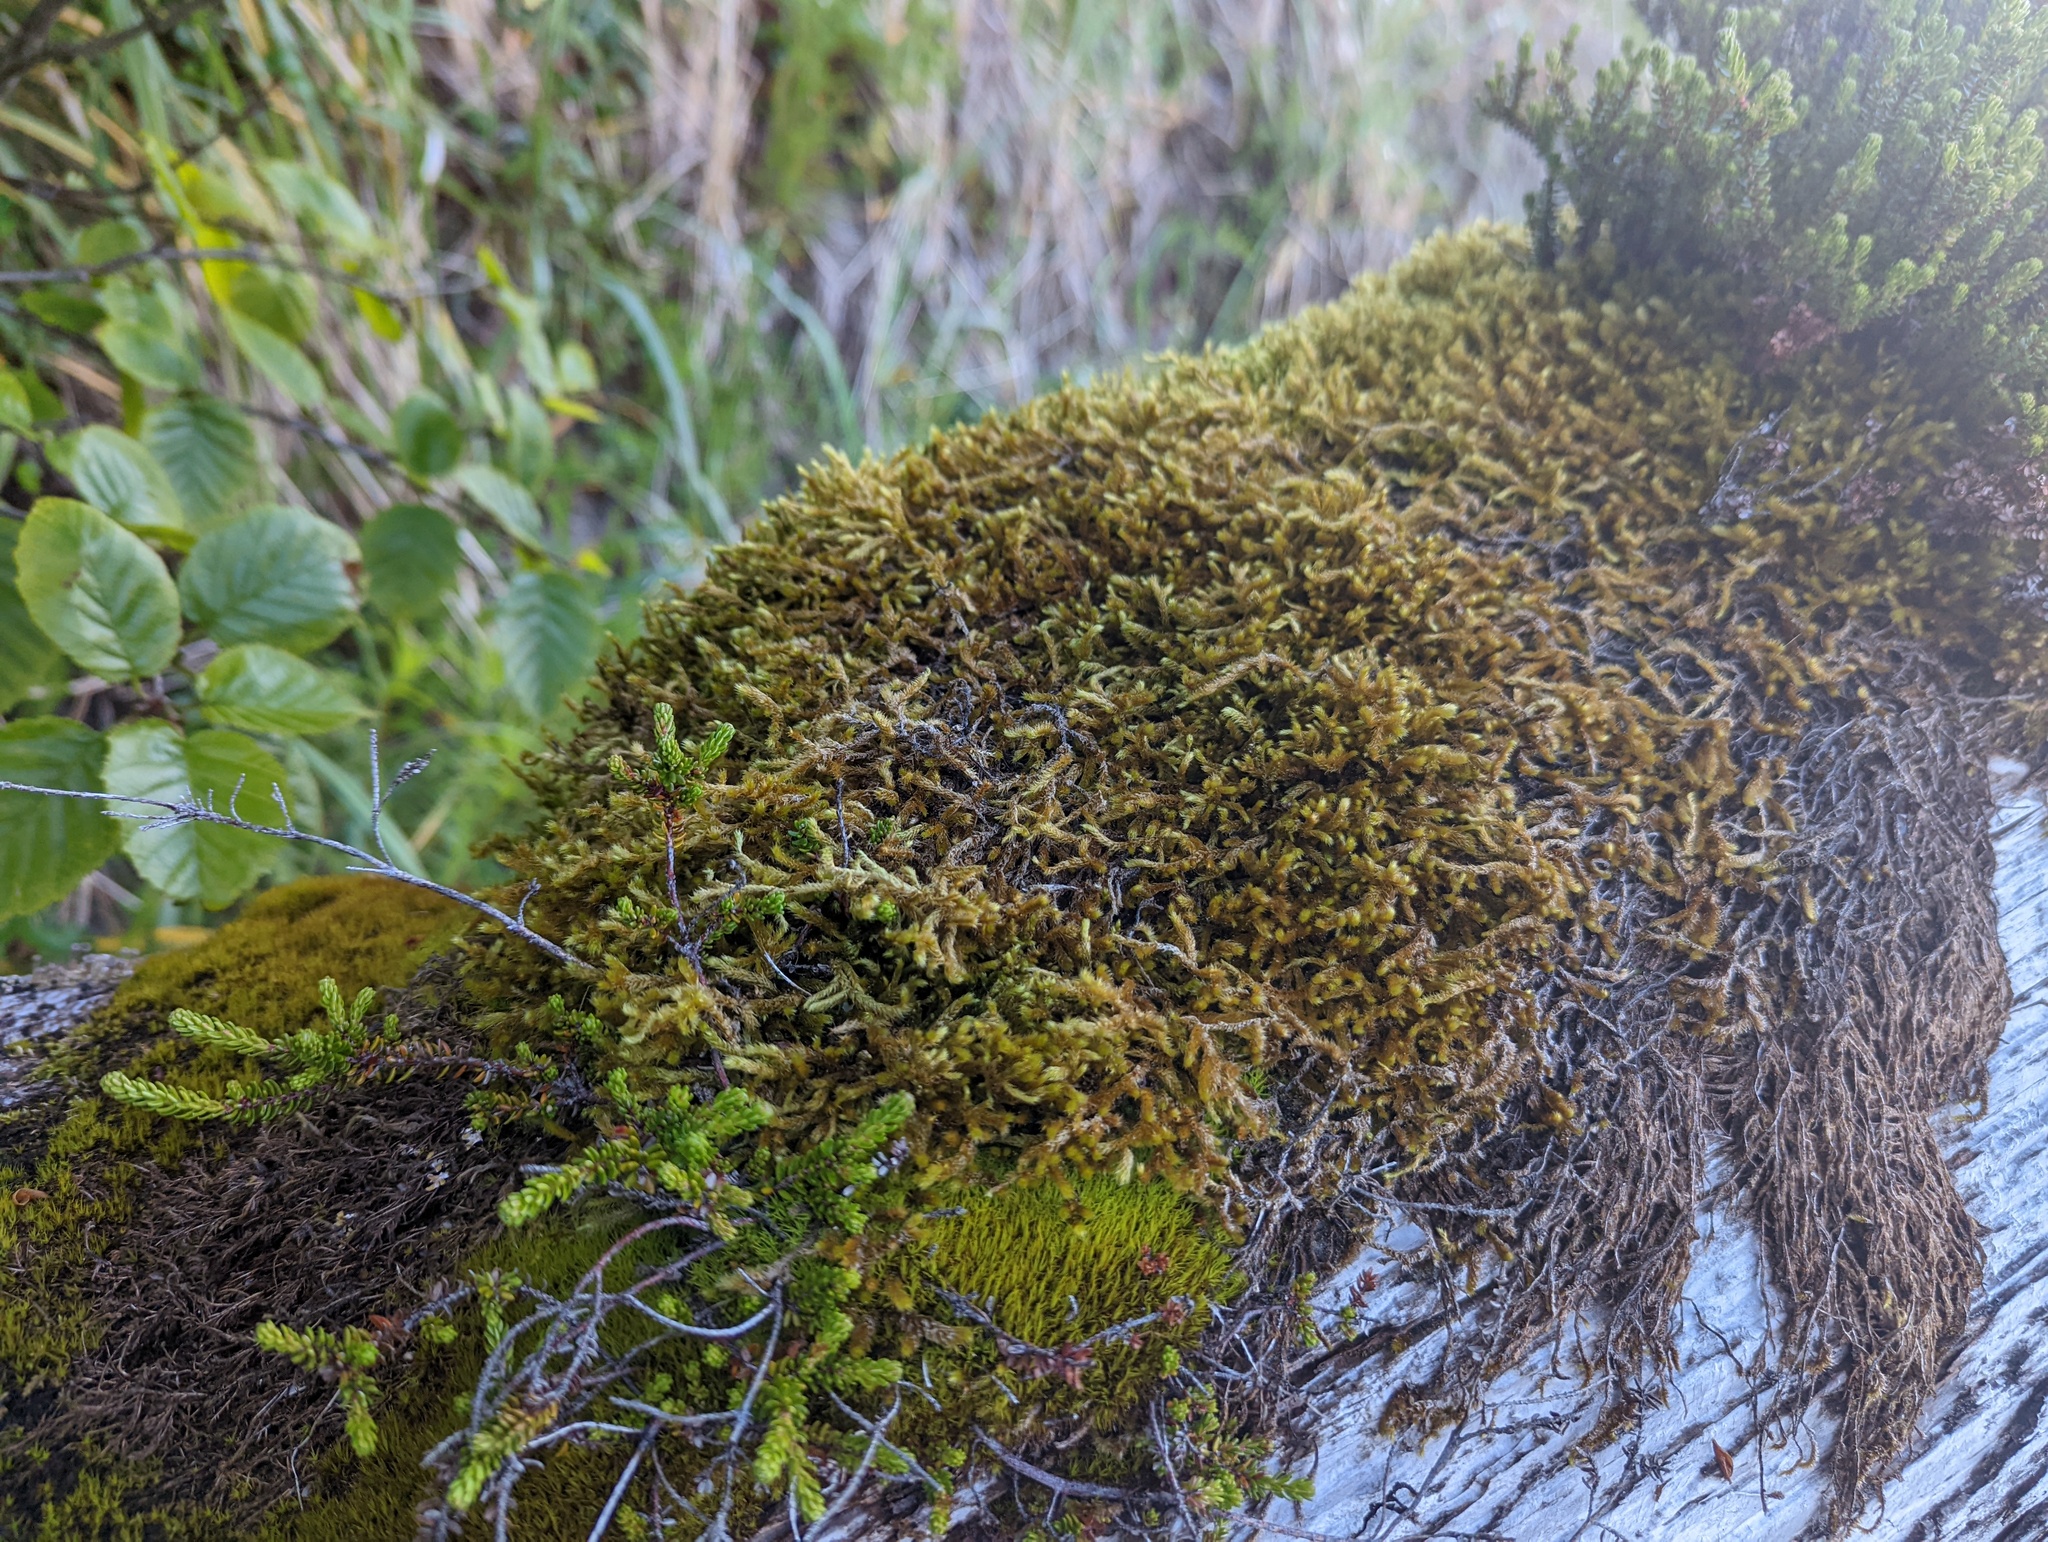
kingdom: Plantae
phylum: Bryophyta
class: Bryopsida
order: Hypnales
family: Antitrichiaceae
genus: Antitrichia
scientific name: Antitrichia curtipendula
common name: Pendulous wing-moss
